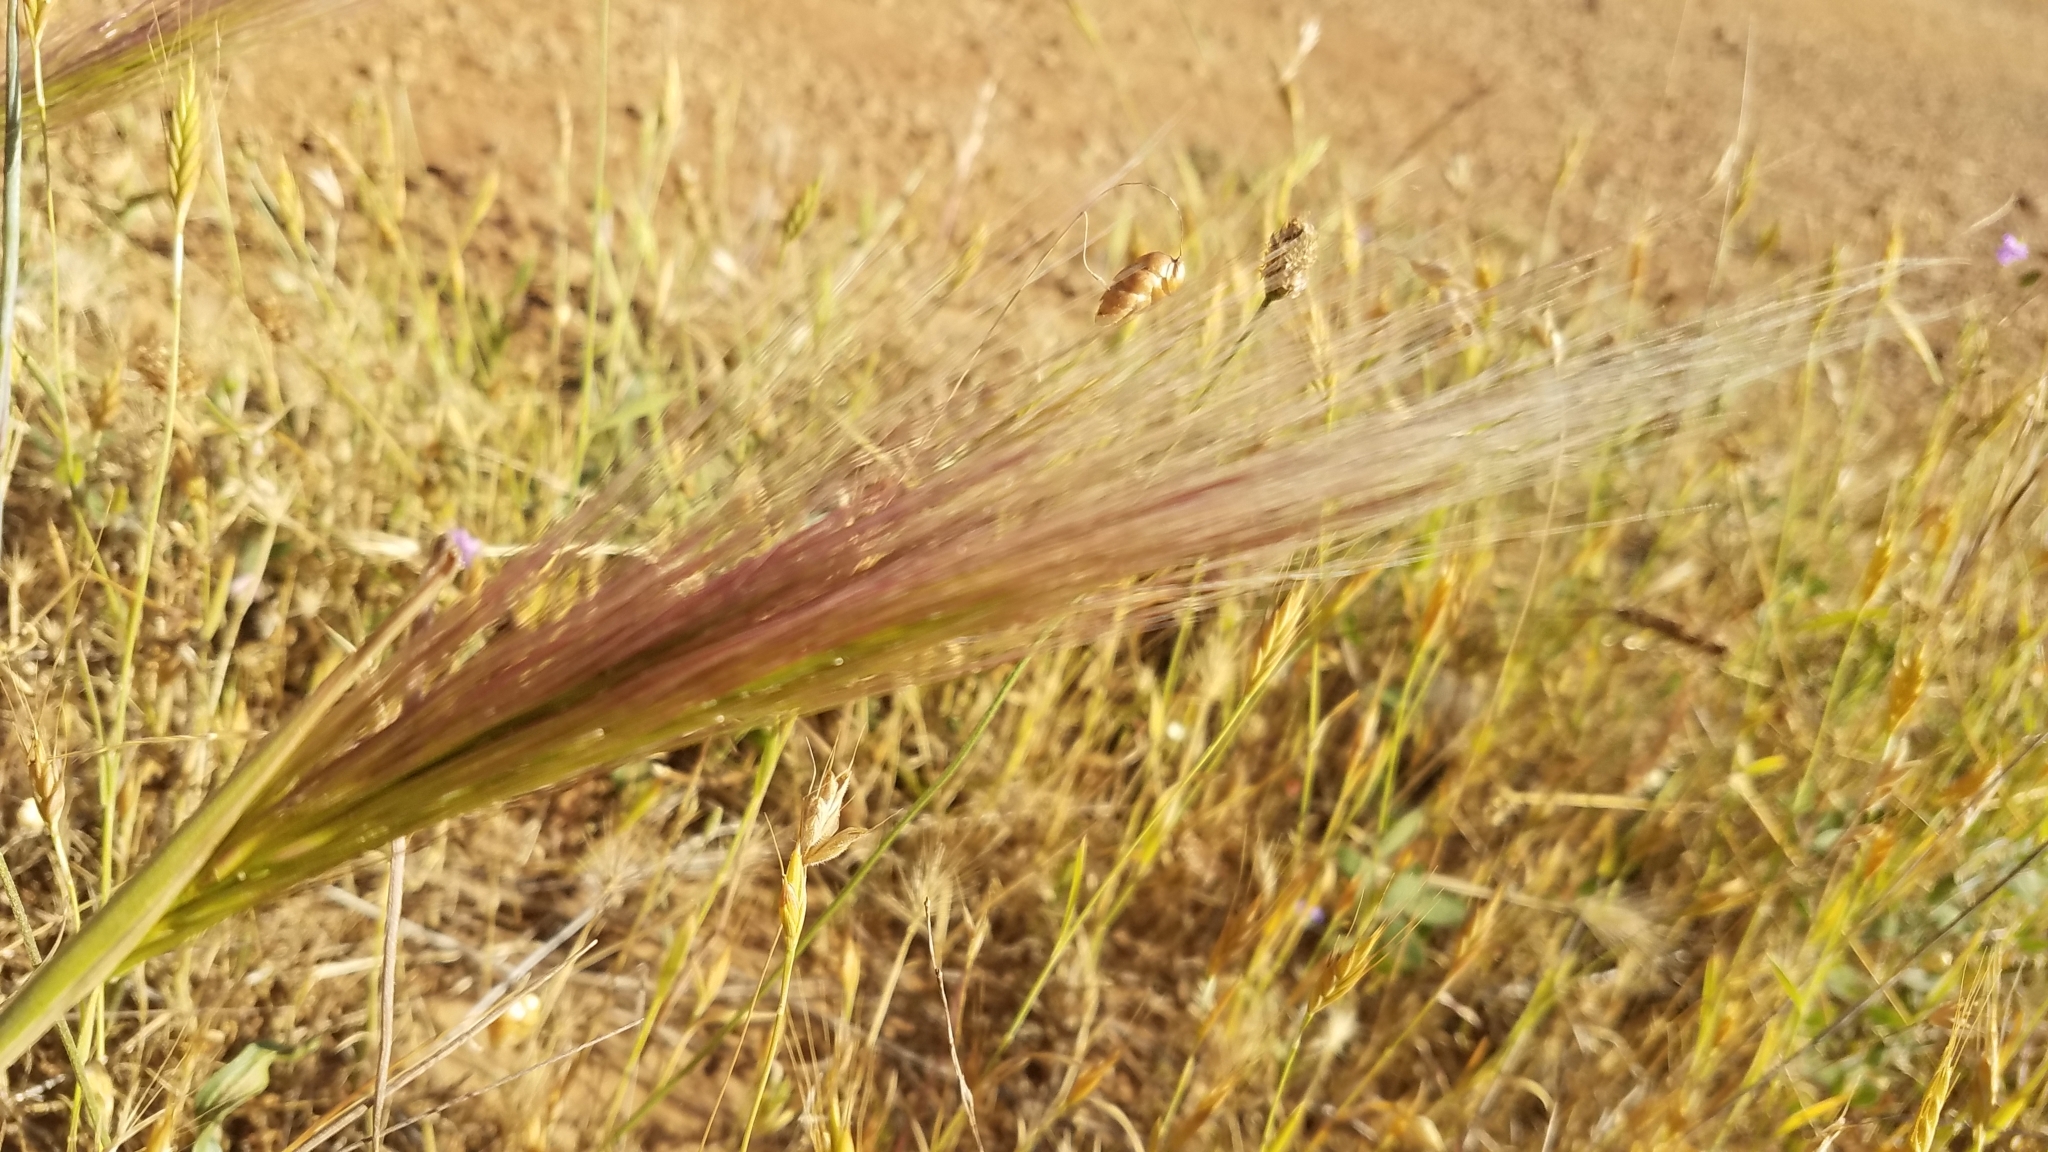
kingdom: Plantae
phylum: Tracheophyta
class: Liliopsida
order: Poales
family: Poaceae
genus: Elymus
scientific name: Elymus multisetus
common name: Big squirreltail
